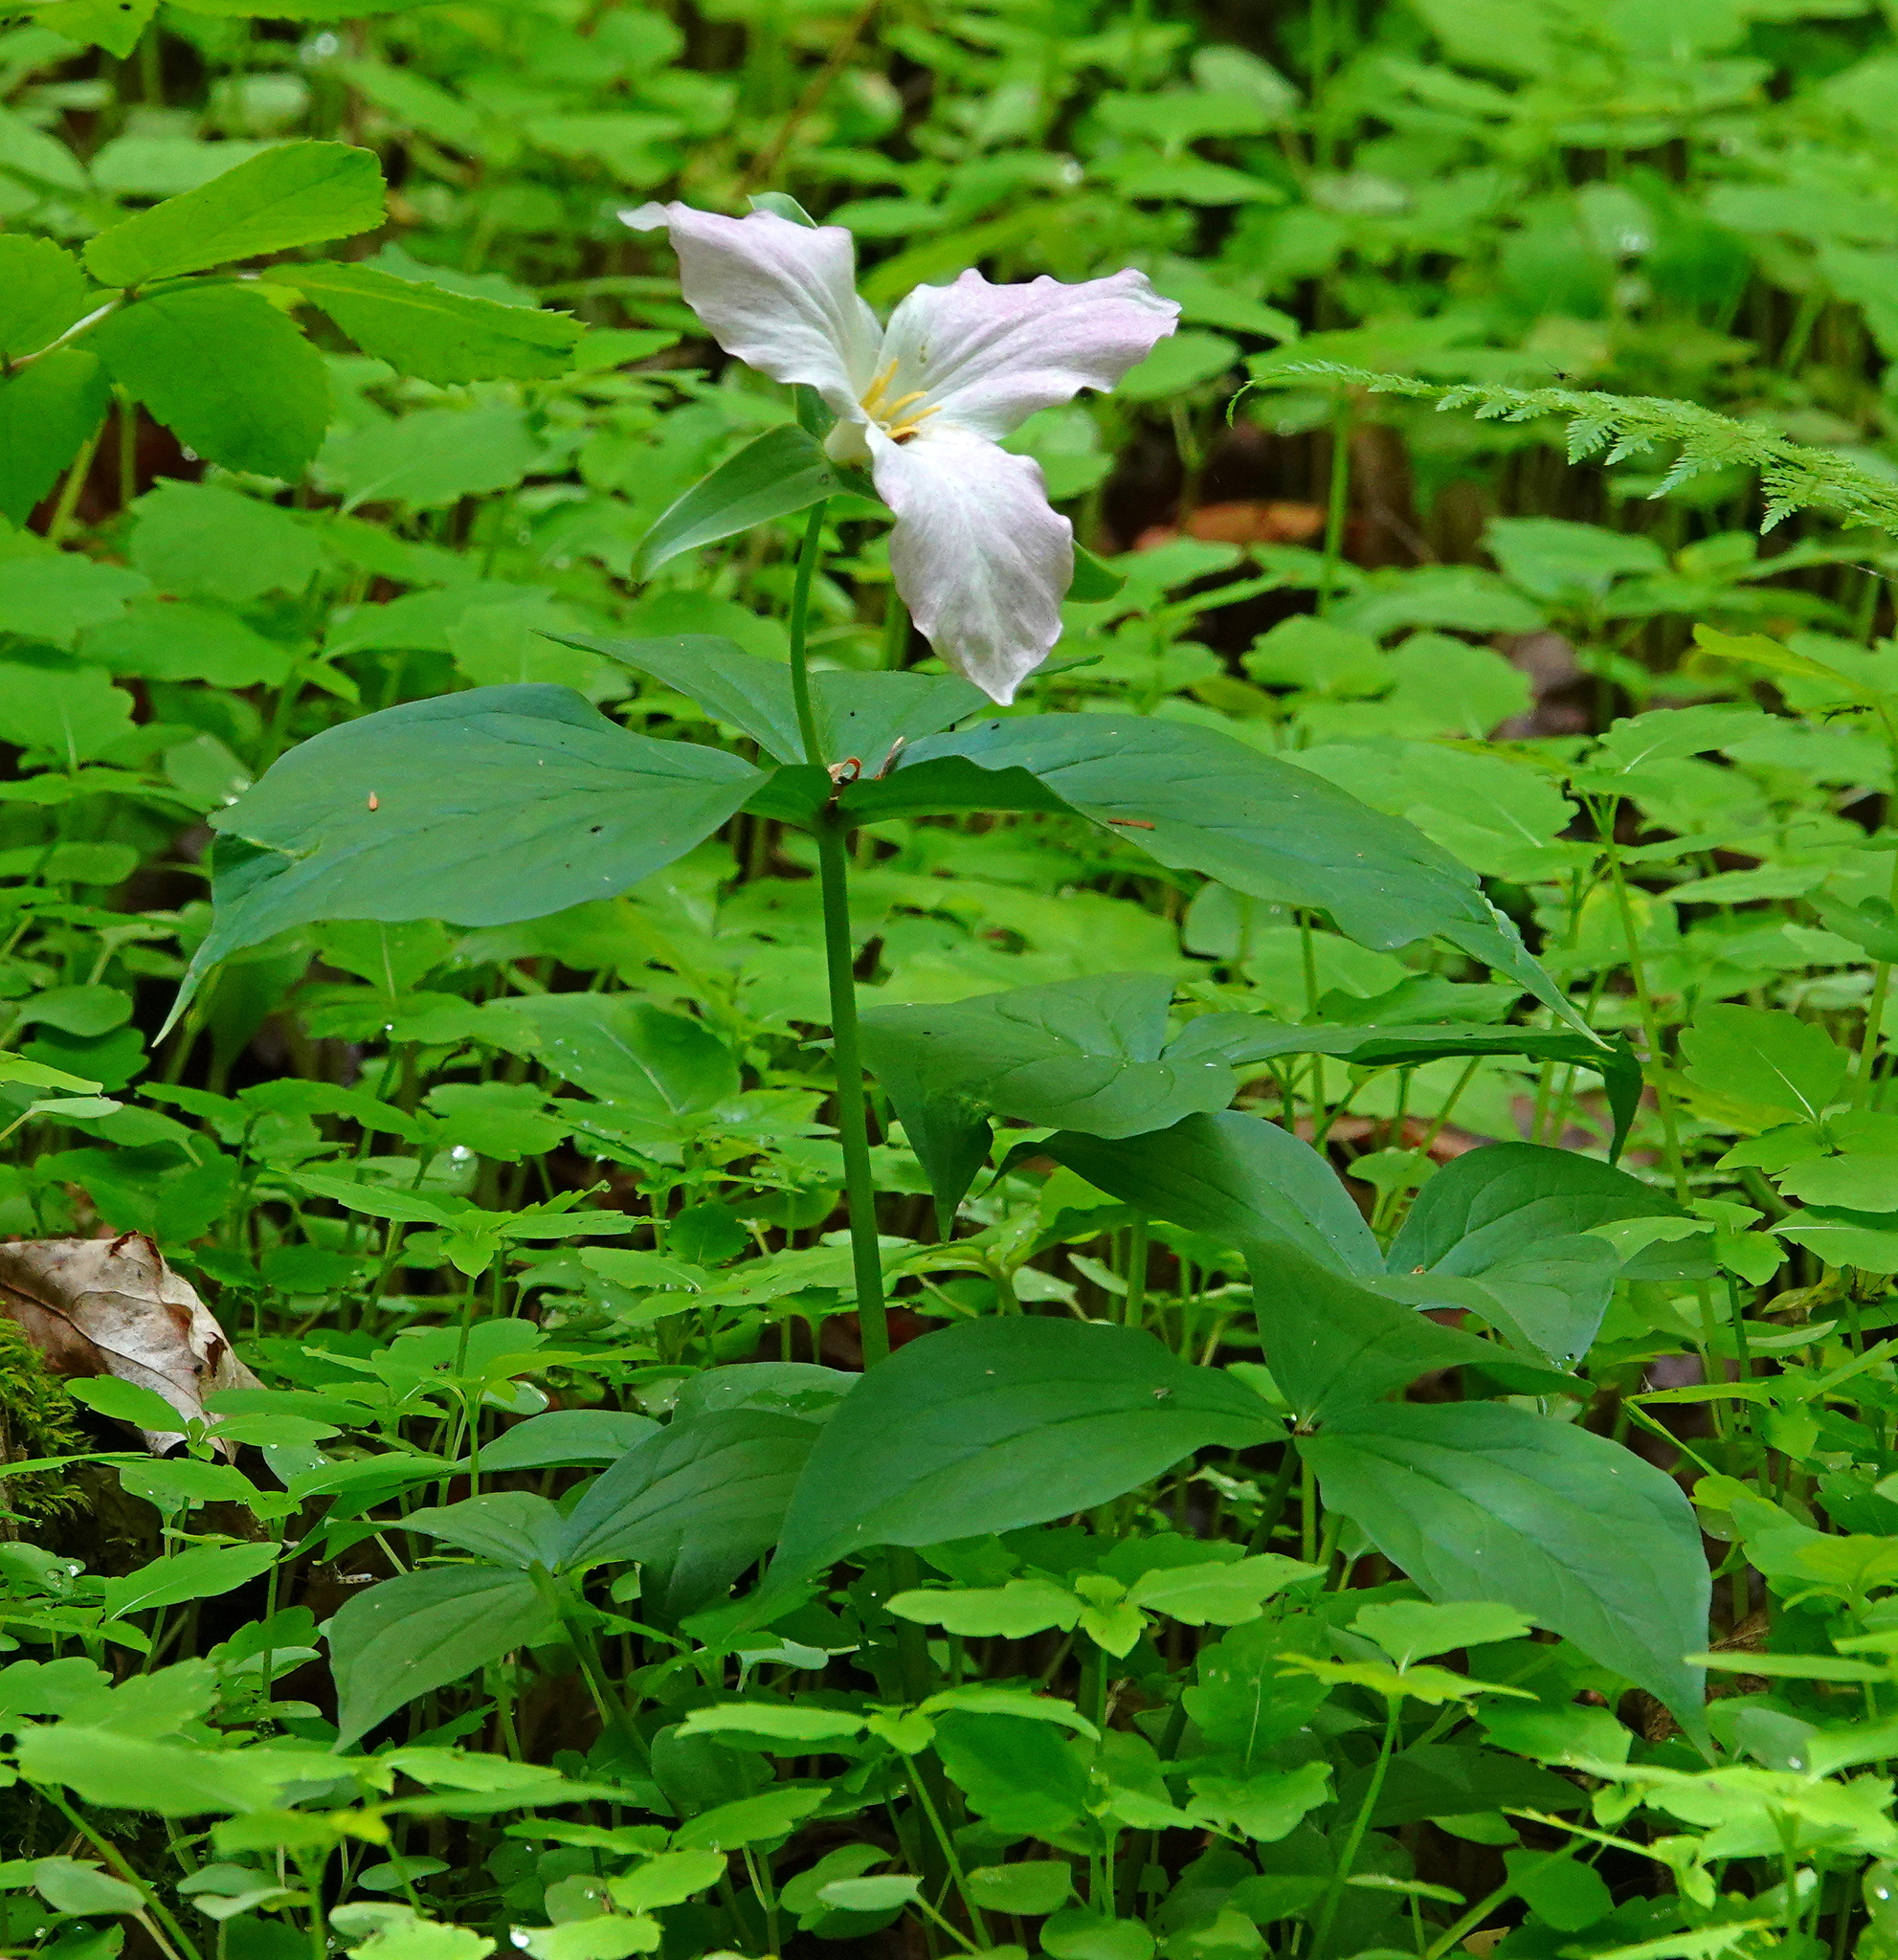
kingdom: Plantae
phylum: Tracheophyta
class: Liliopsida
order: Liliales
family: Melanthiaceae
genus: Trillium
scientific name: Trillium grandiflorum
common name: Great white trillium
